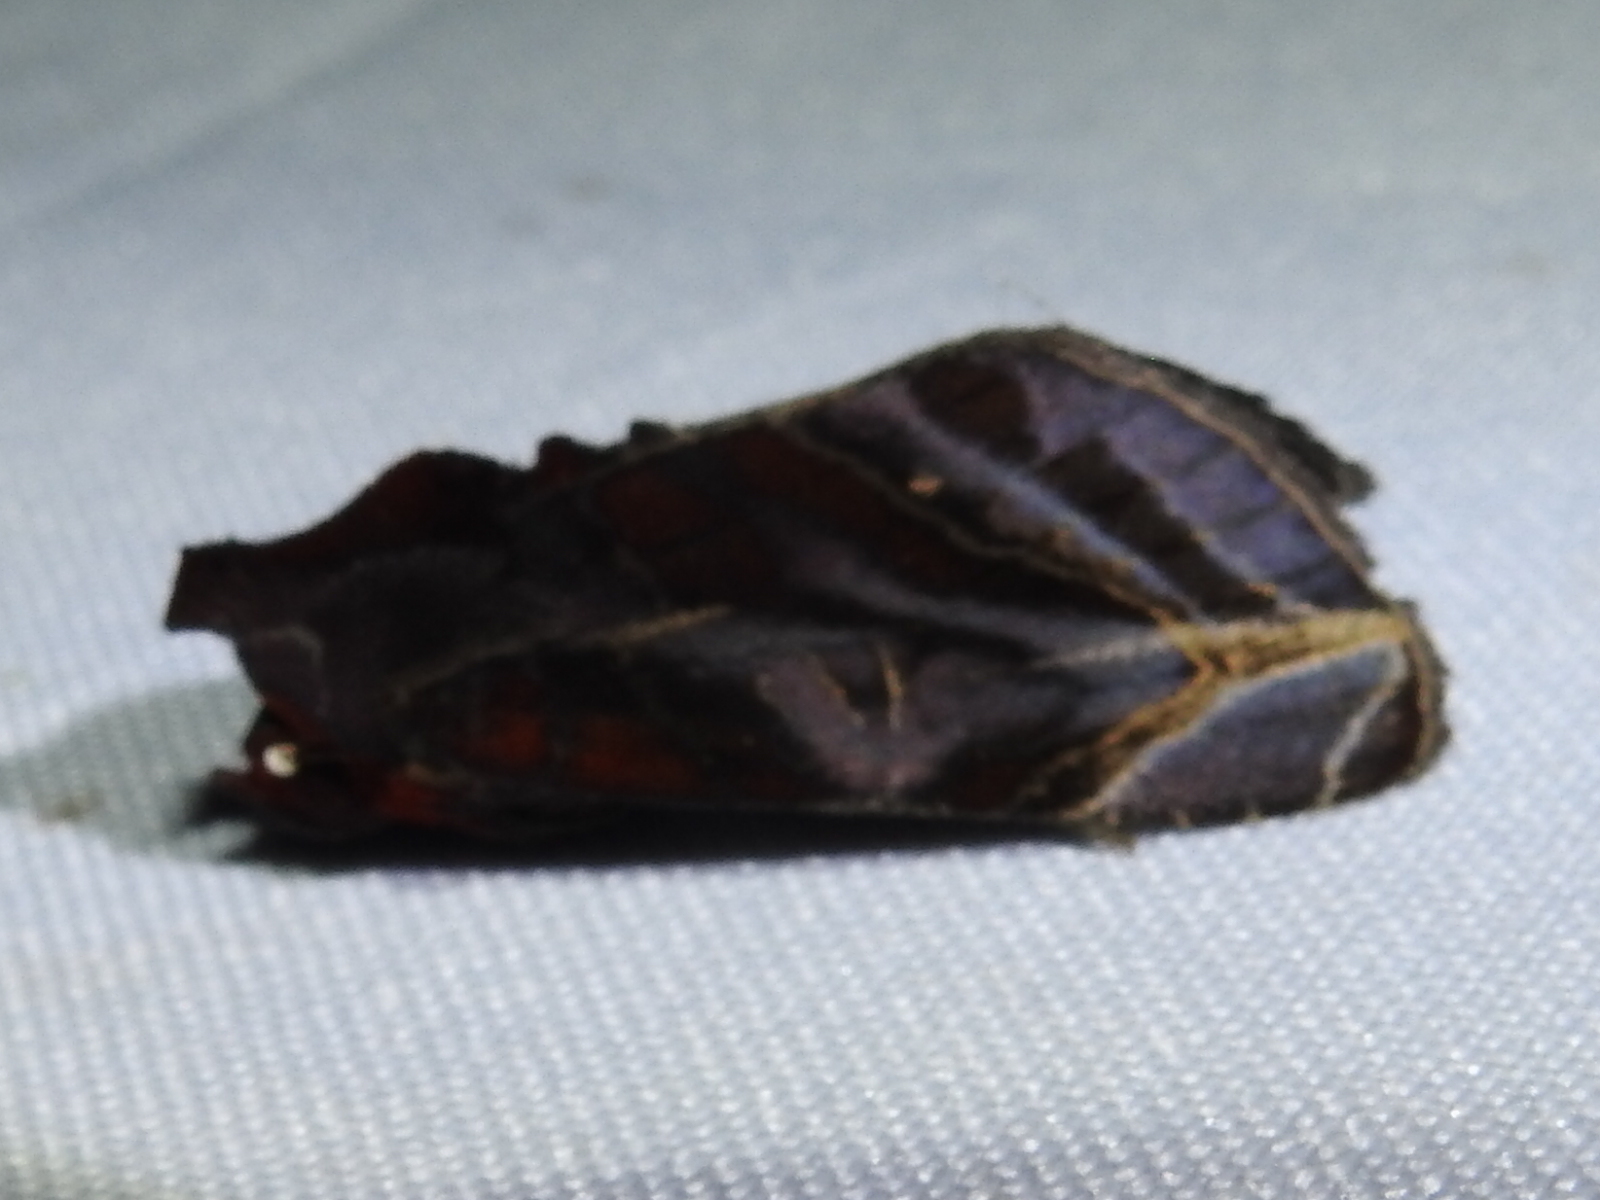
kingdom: Animalia
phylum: Arthropoda
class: Insecta
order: Lepidoptera
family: Erebidae
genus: Hemicephalis
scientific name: Hemicephalis alesa
